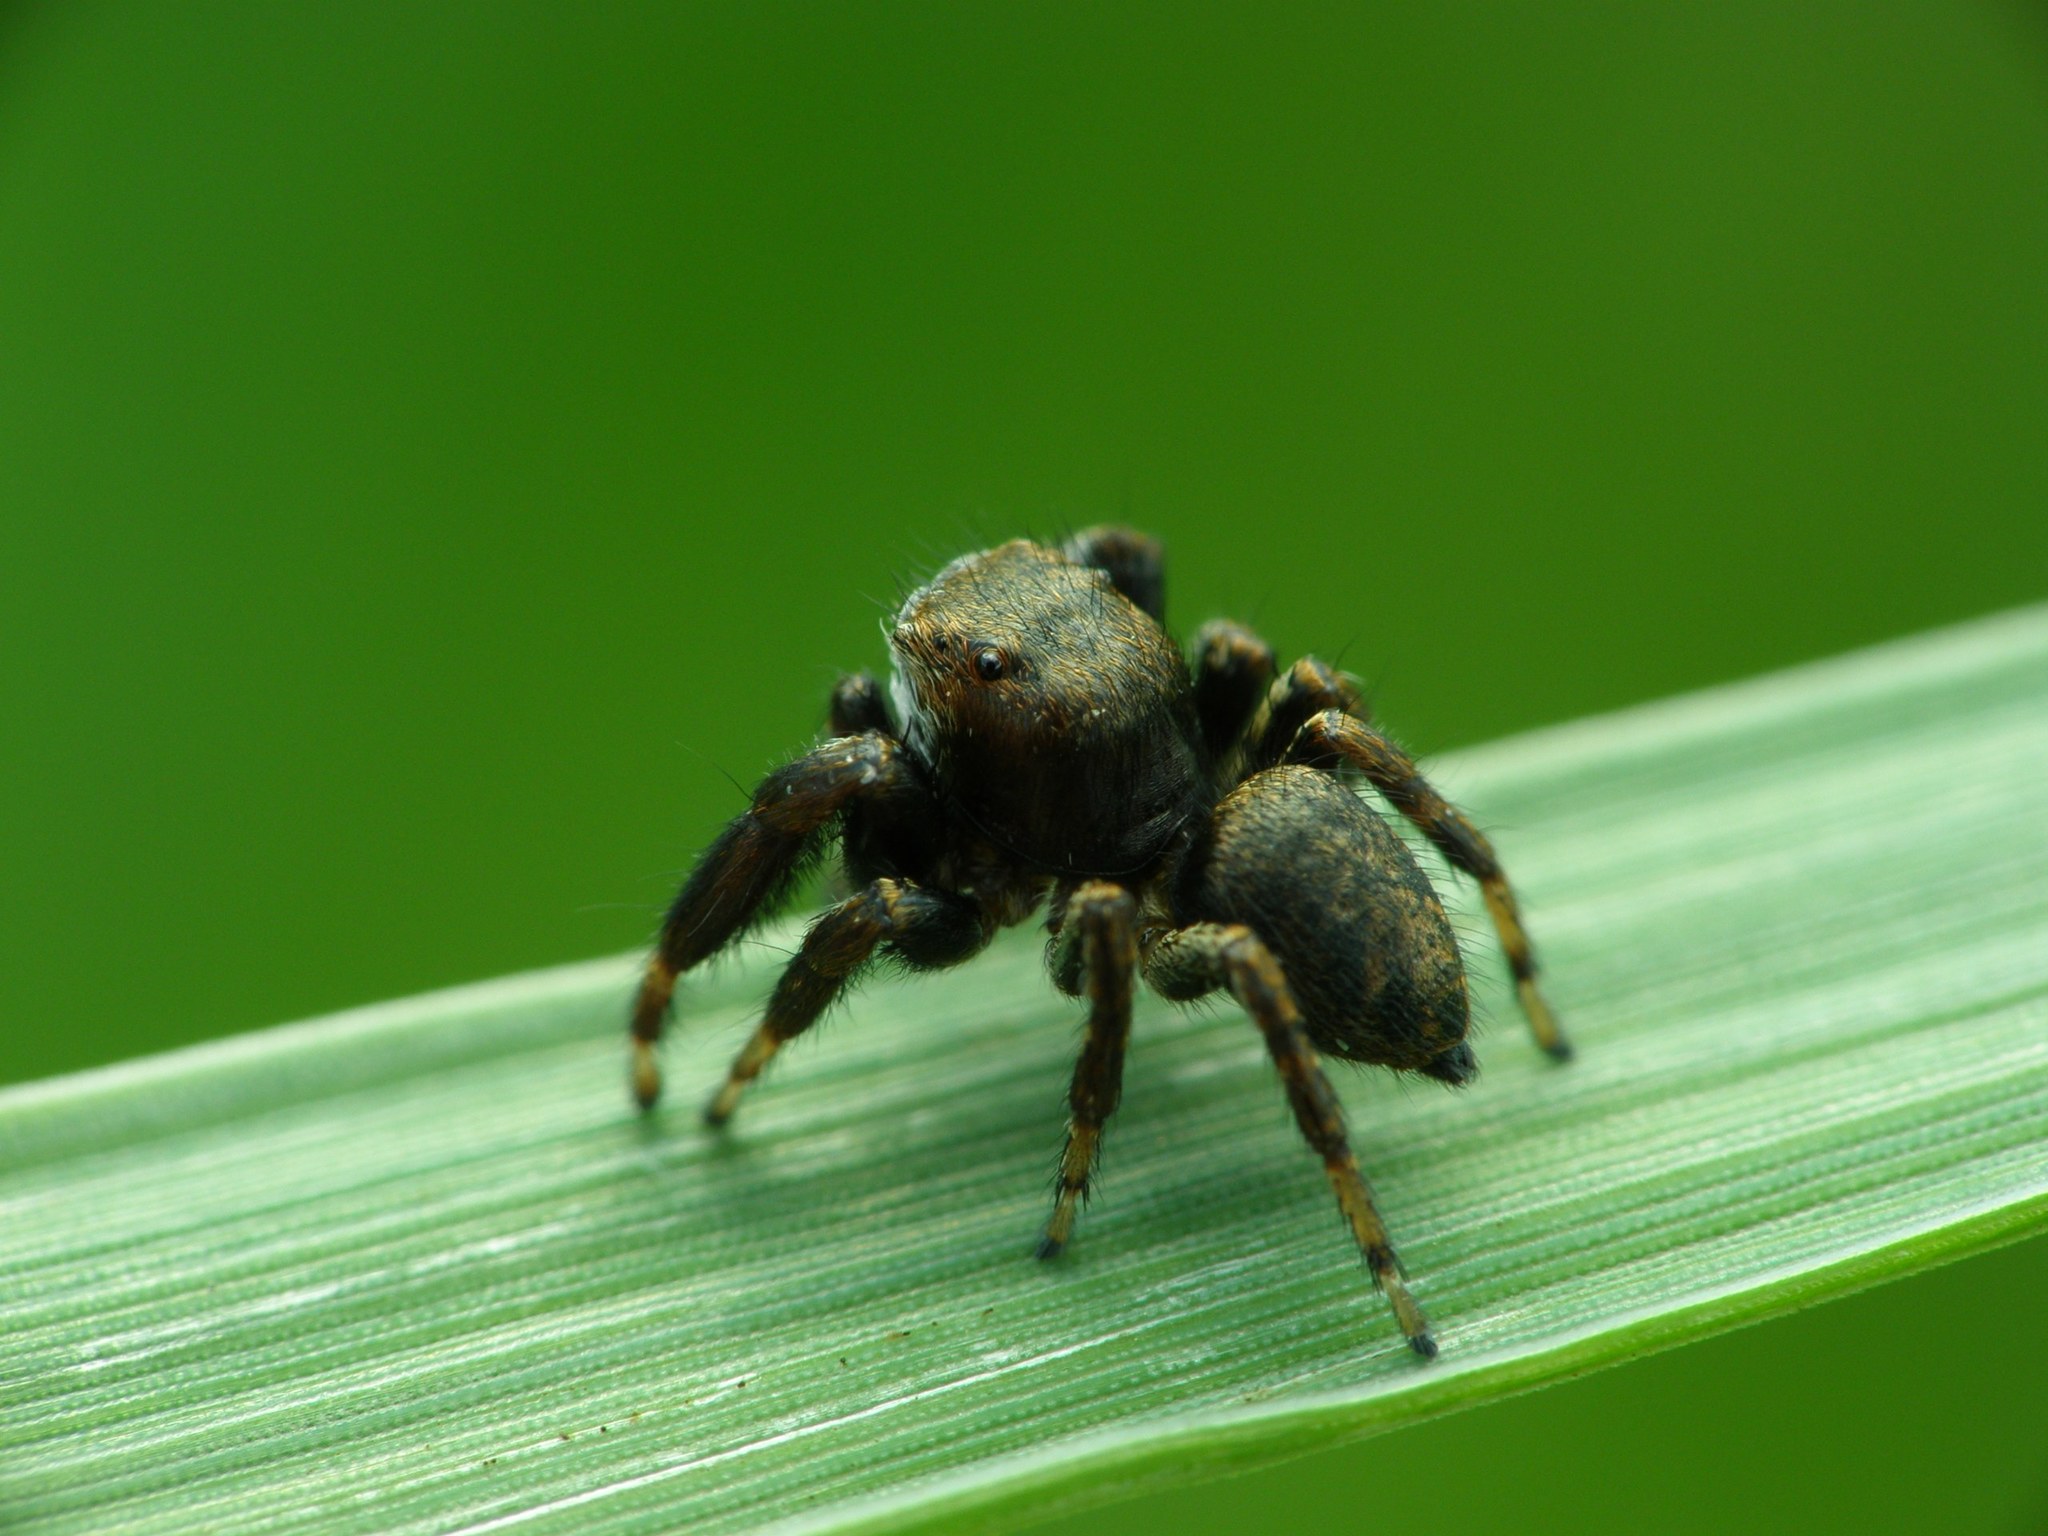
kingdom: Animalia
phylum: Arthropoda
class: Arachnida
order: Araneae
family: Salticidae
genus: Evarcha
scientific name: Evarcha arcuata
